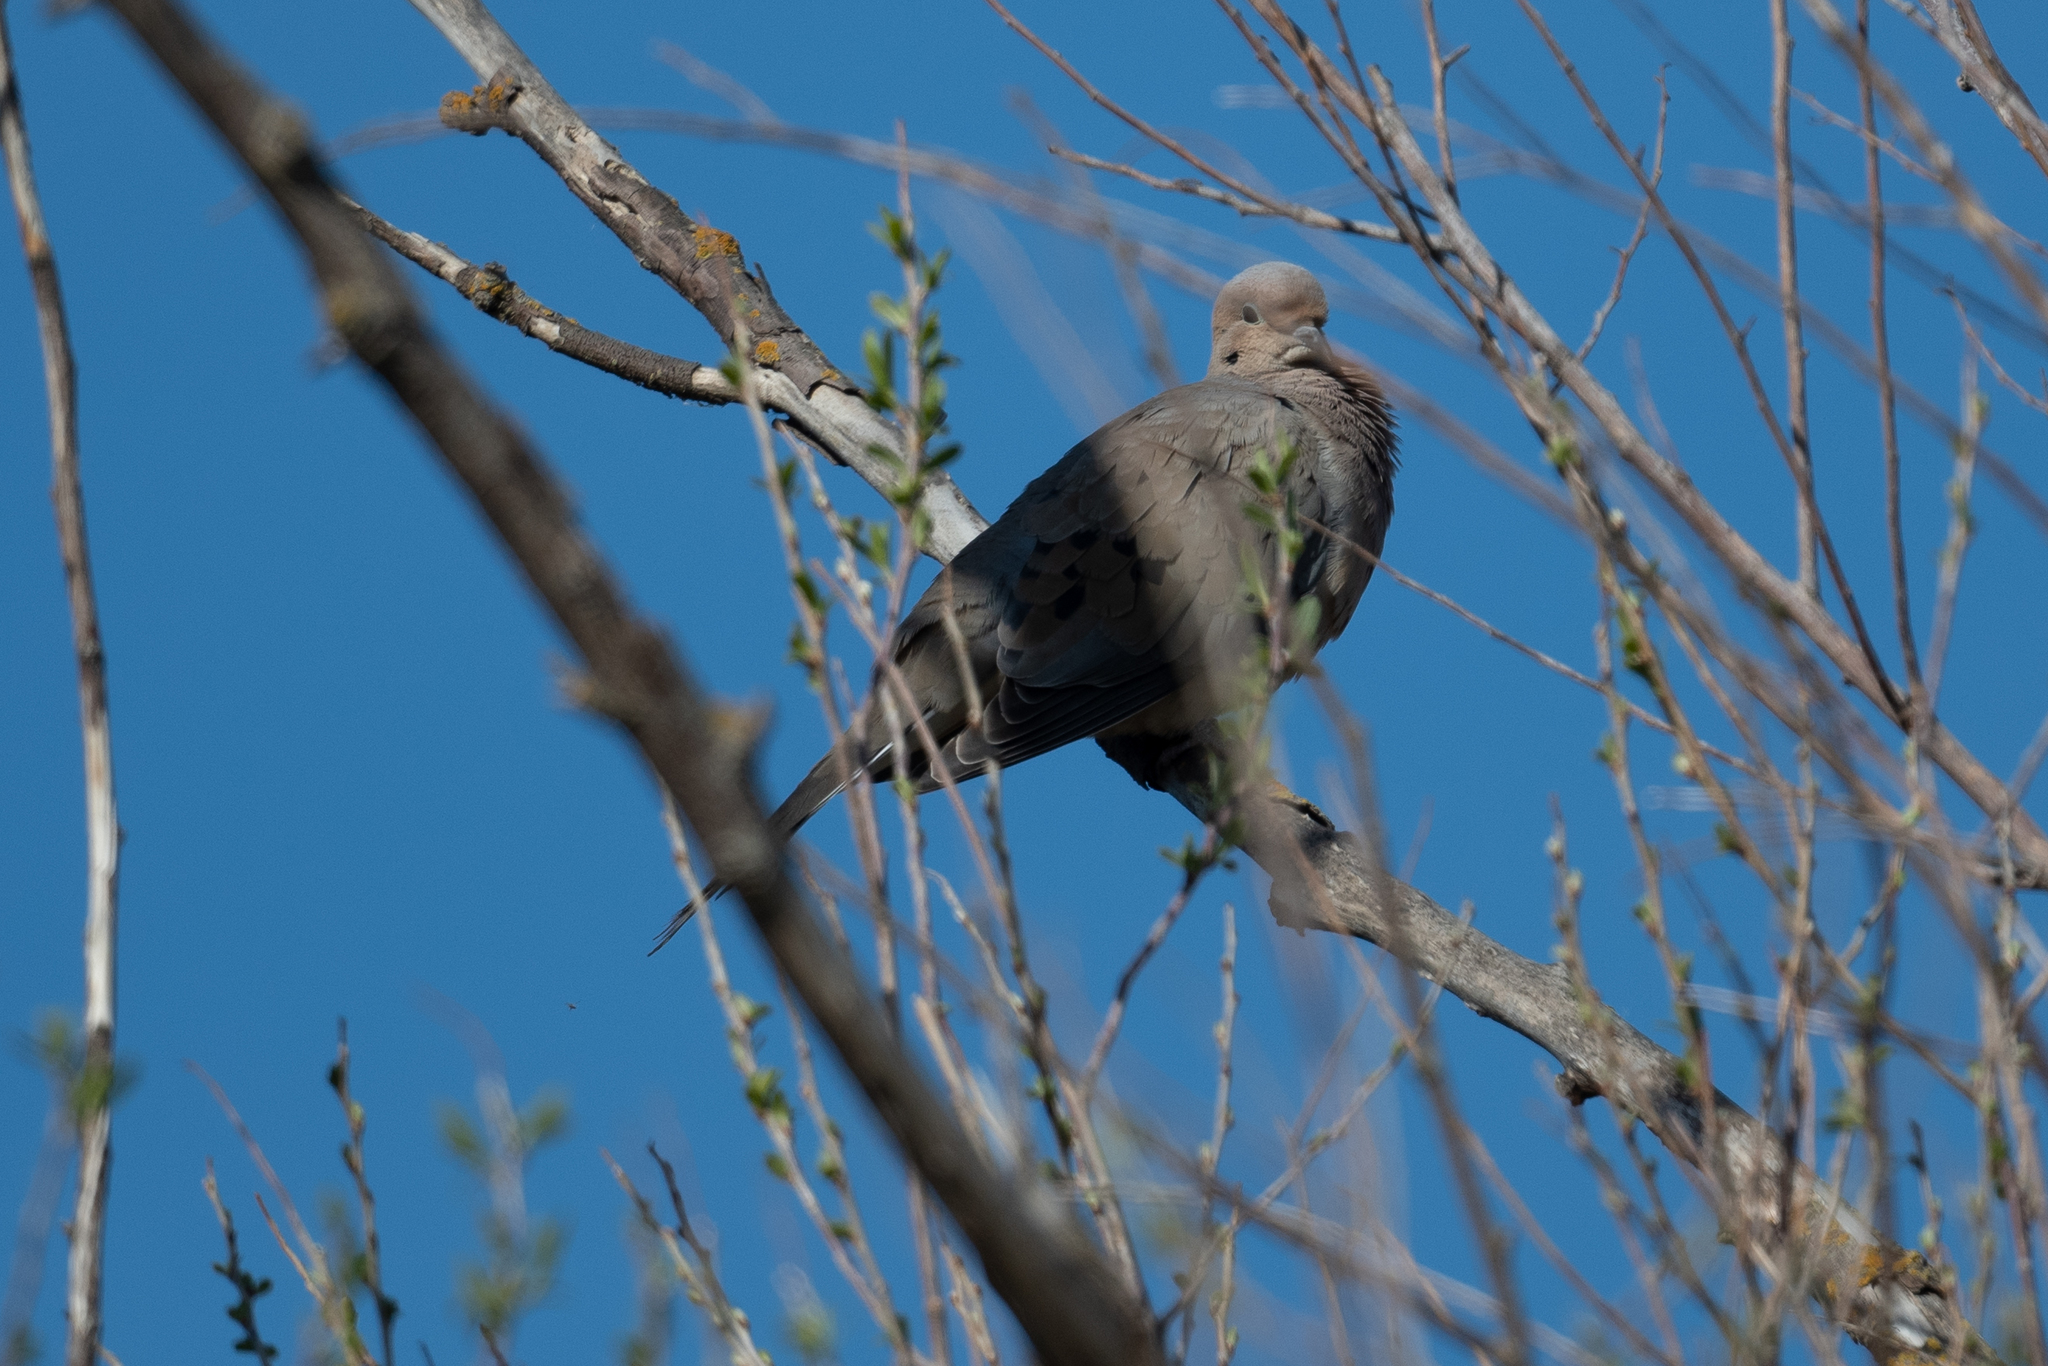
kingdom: Animalia
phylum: Chordata
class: Aves
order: Columbiformes
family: Columbidae
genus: Zenaida
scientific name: Zenaida macroura
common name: Mourning dove
